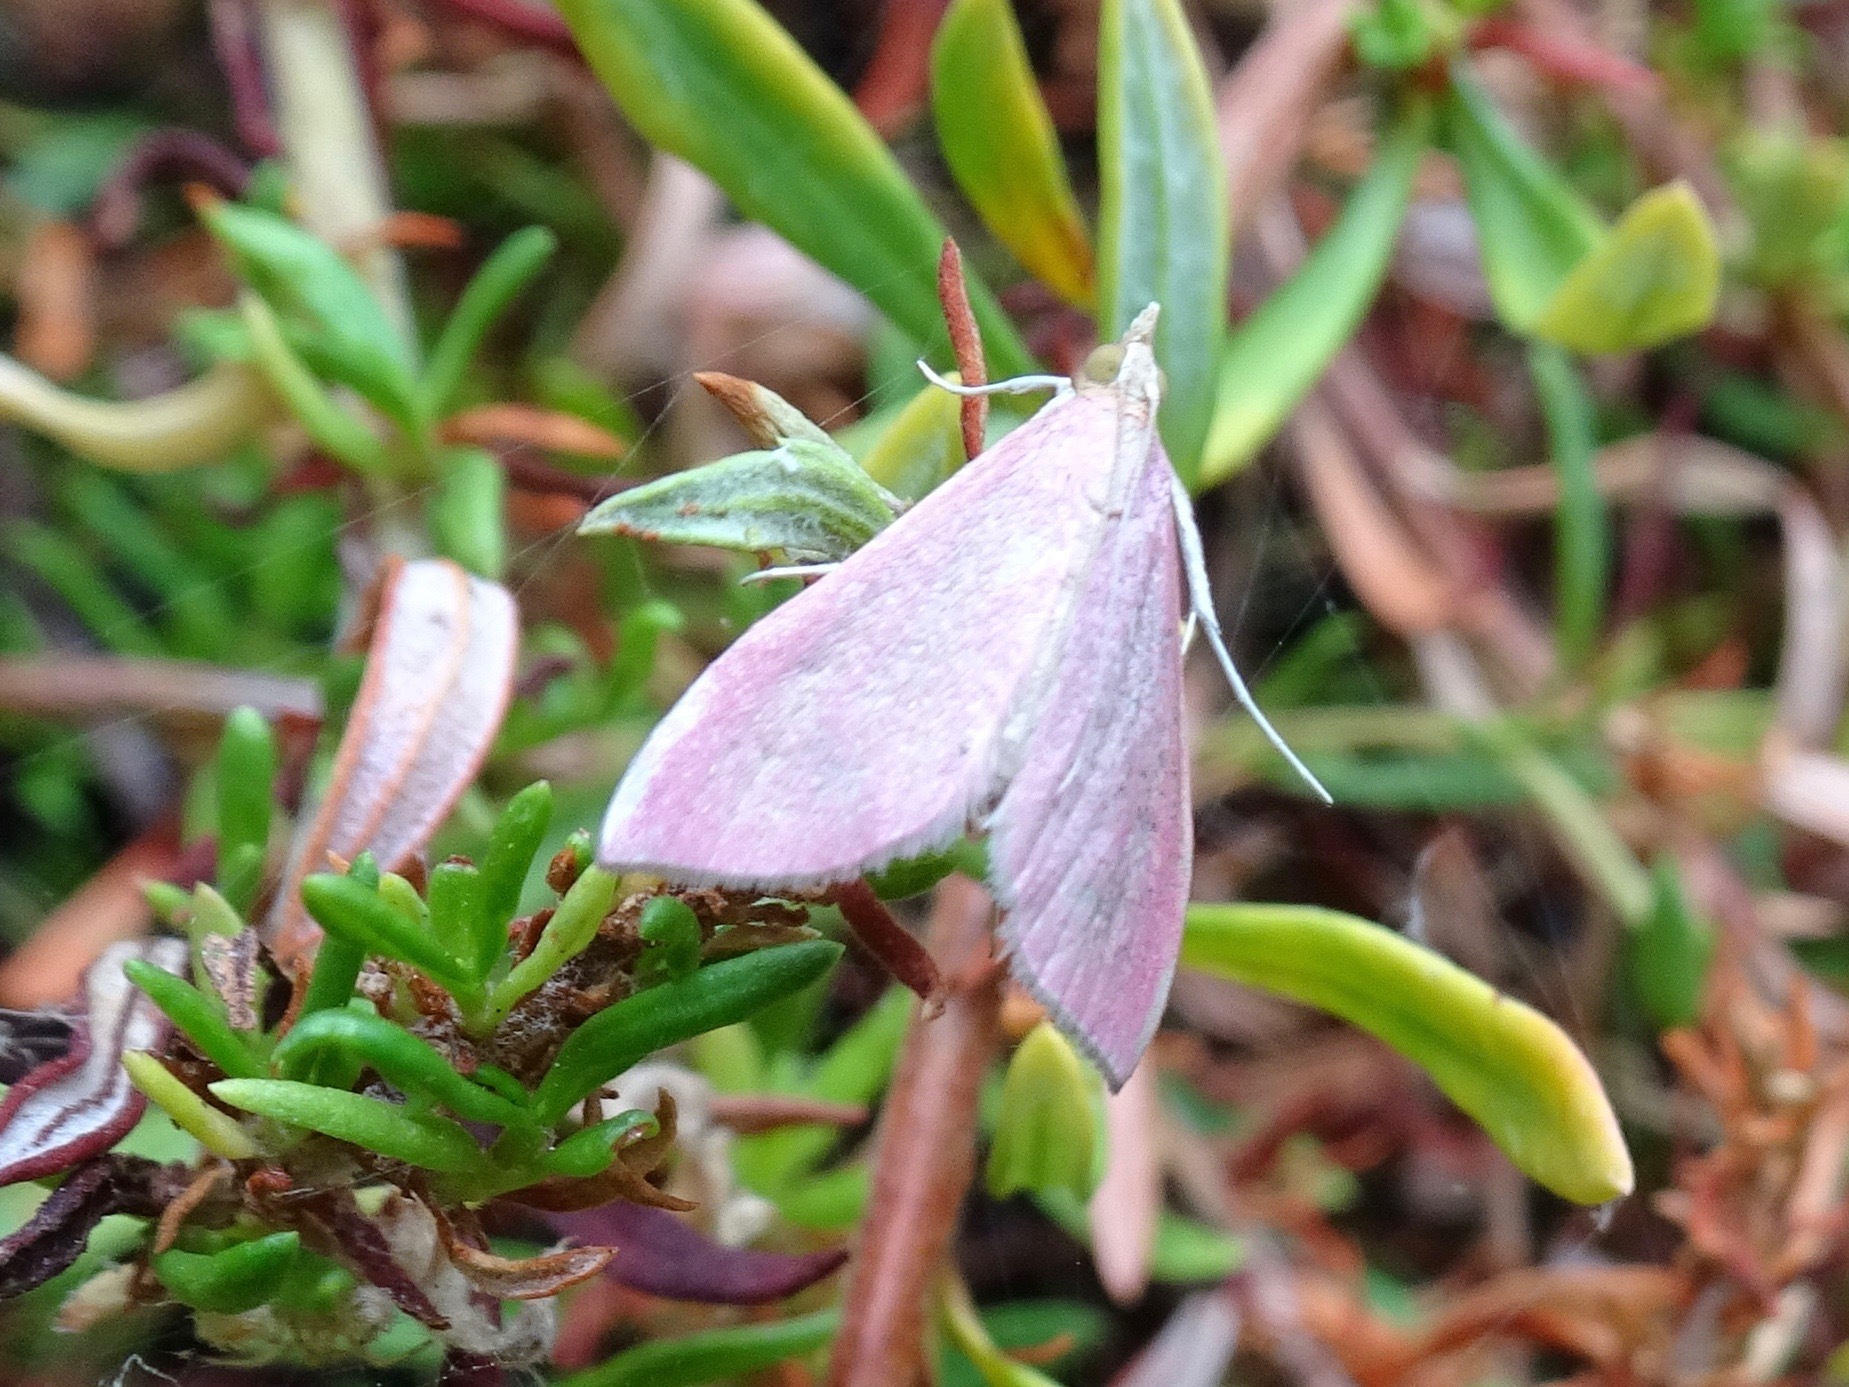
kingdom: Animalia
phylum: Arthropoda
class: Insecta
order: Lepidoptera
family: Crambidae
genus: Pyrausta
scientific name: Pyrausta inornatalis
